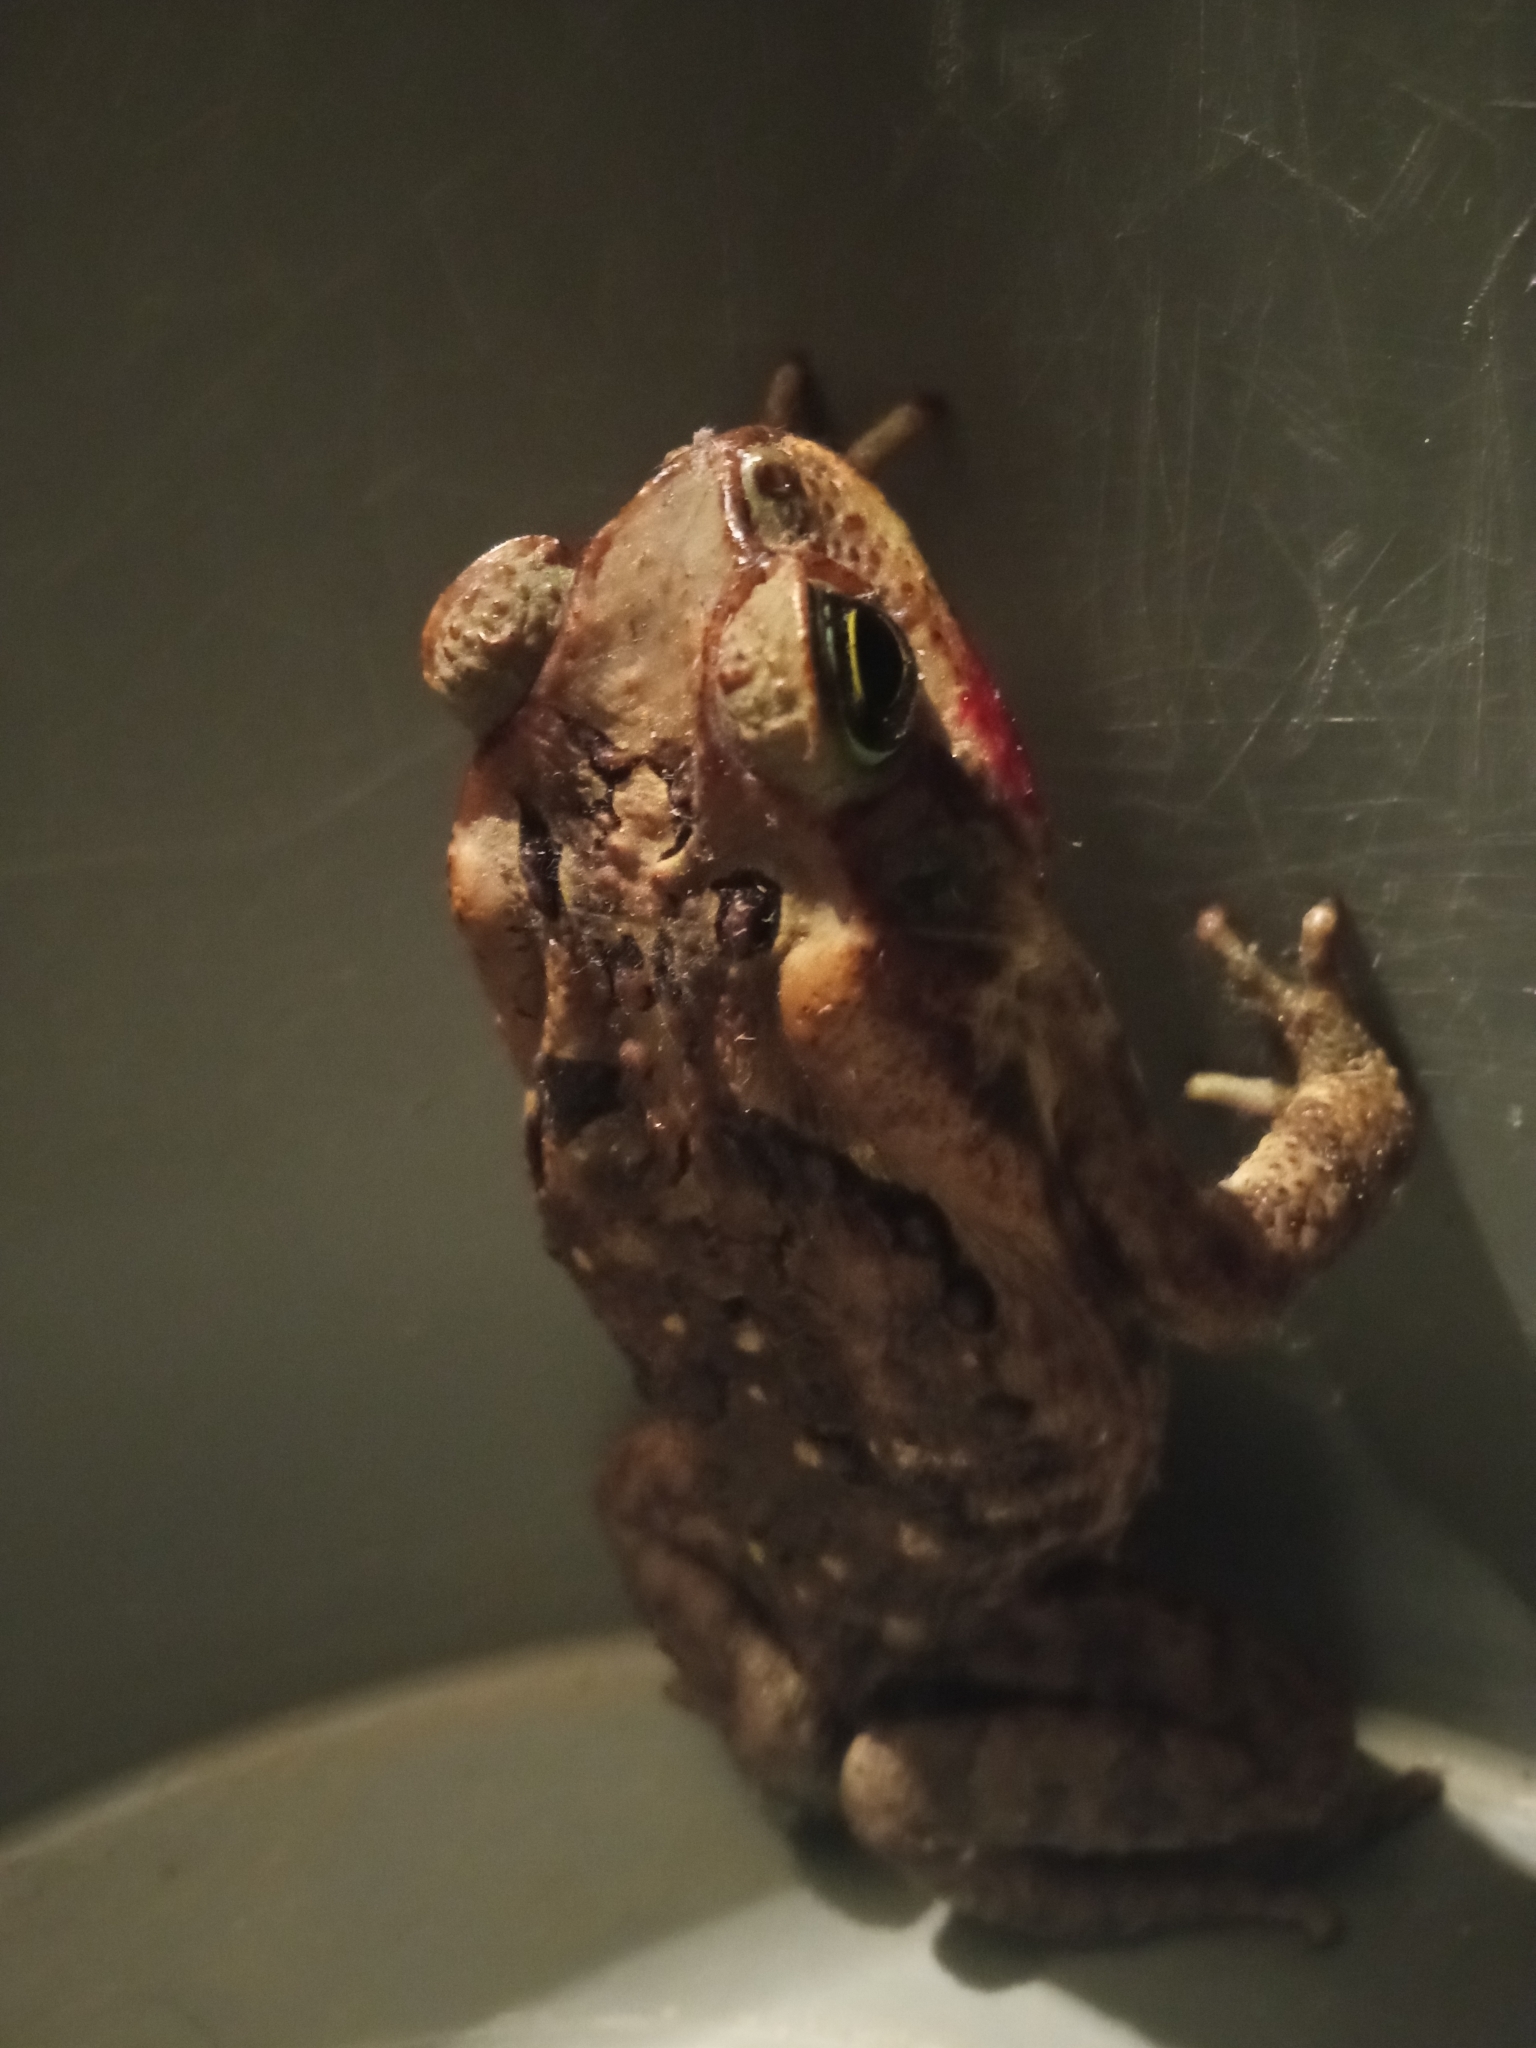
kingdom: Animalia
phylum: Chordata
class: Amphibia
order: Anura
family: Bufonidae
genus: Rhinella
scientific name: Rhinella horribilis
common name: Mesoamerican cane toad
